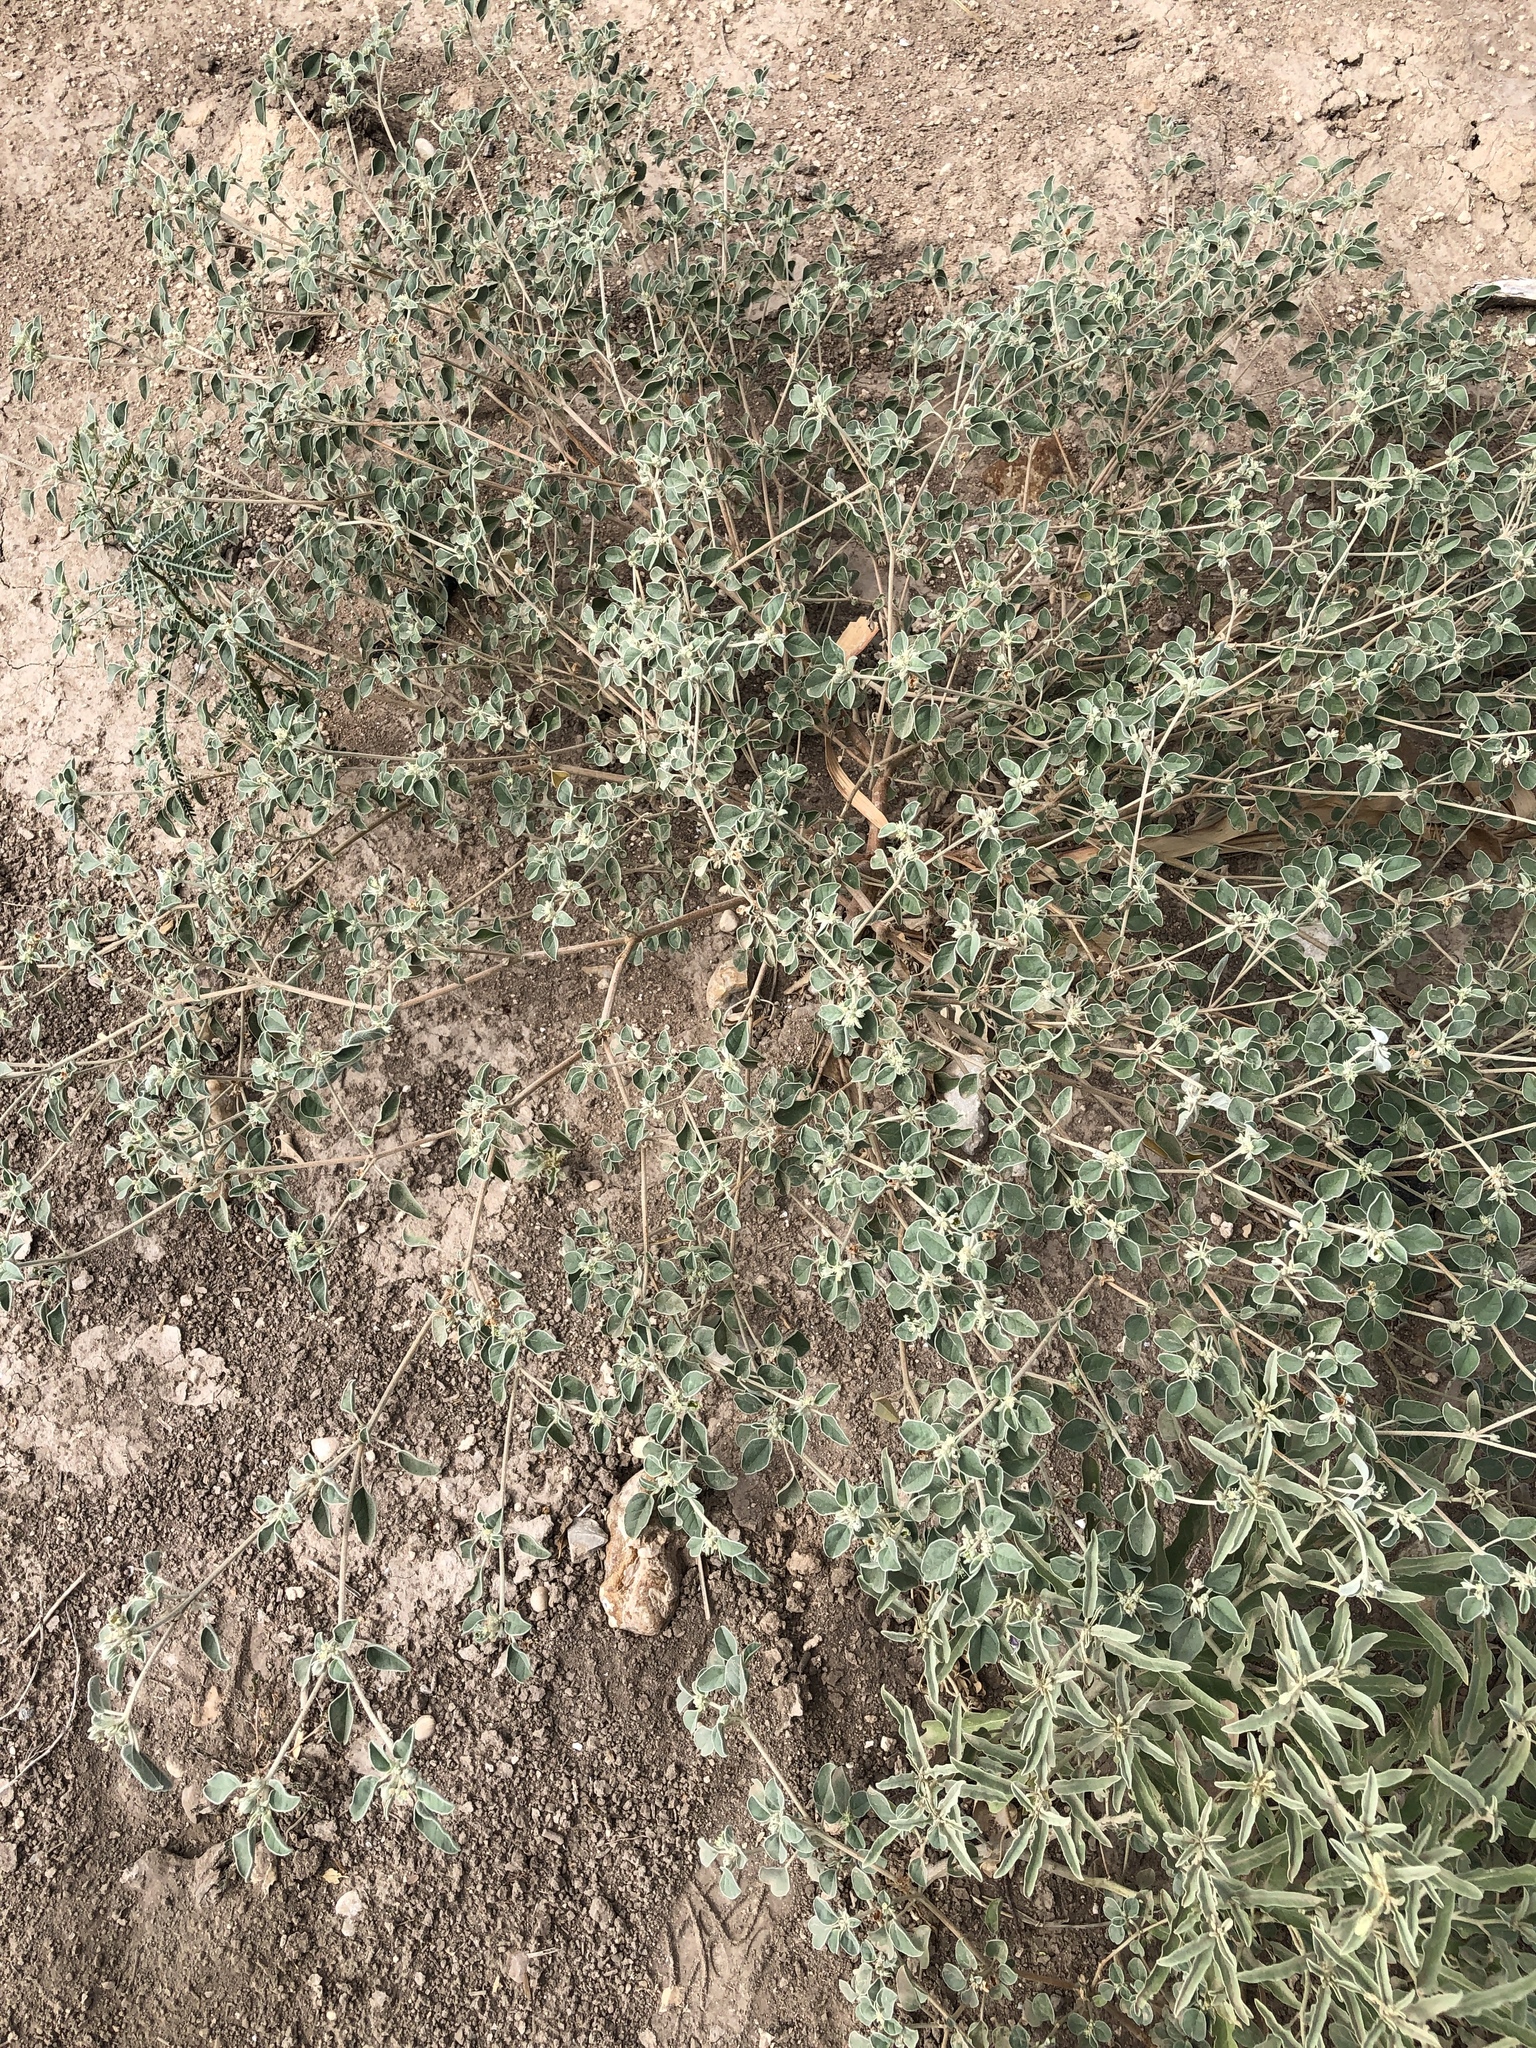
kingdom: Plantae
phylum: Tracheophyta
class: Magnoliopsida
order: Malpighiales
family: Euphorbiaceae
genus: Croton
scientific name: Croton lindheimerianus
